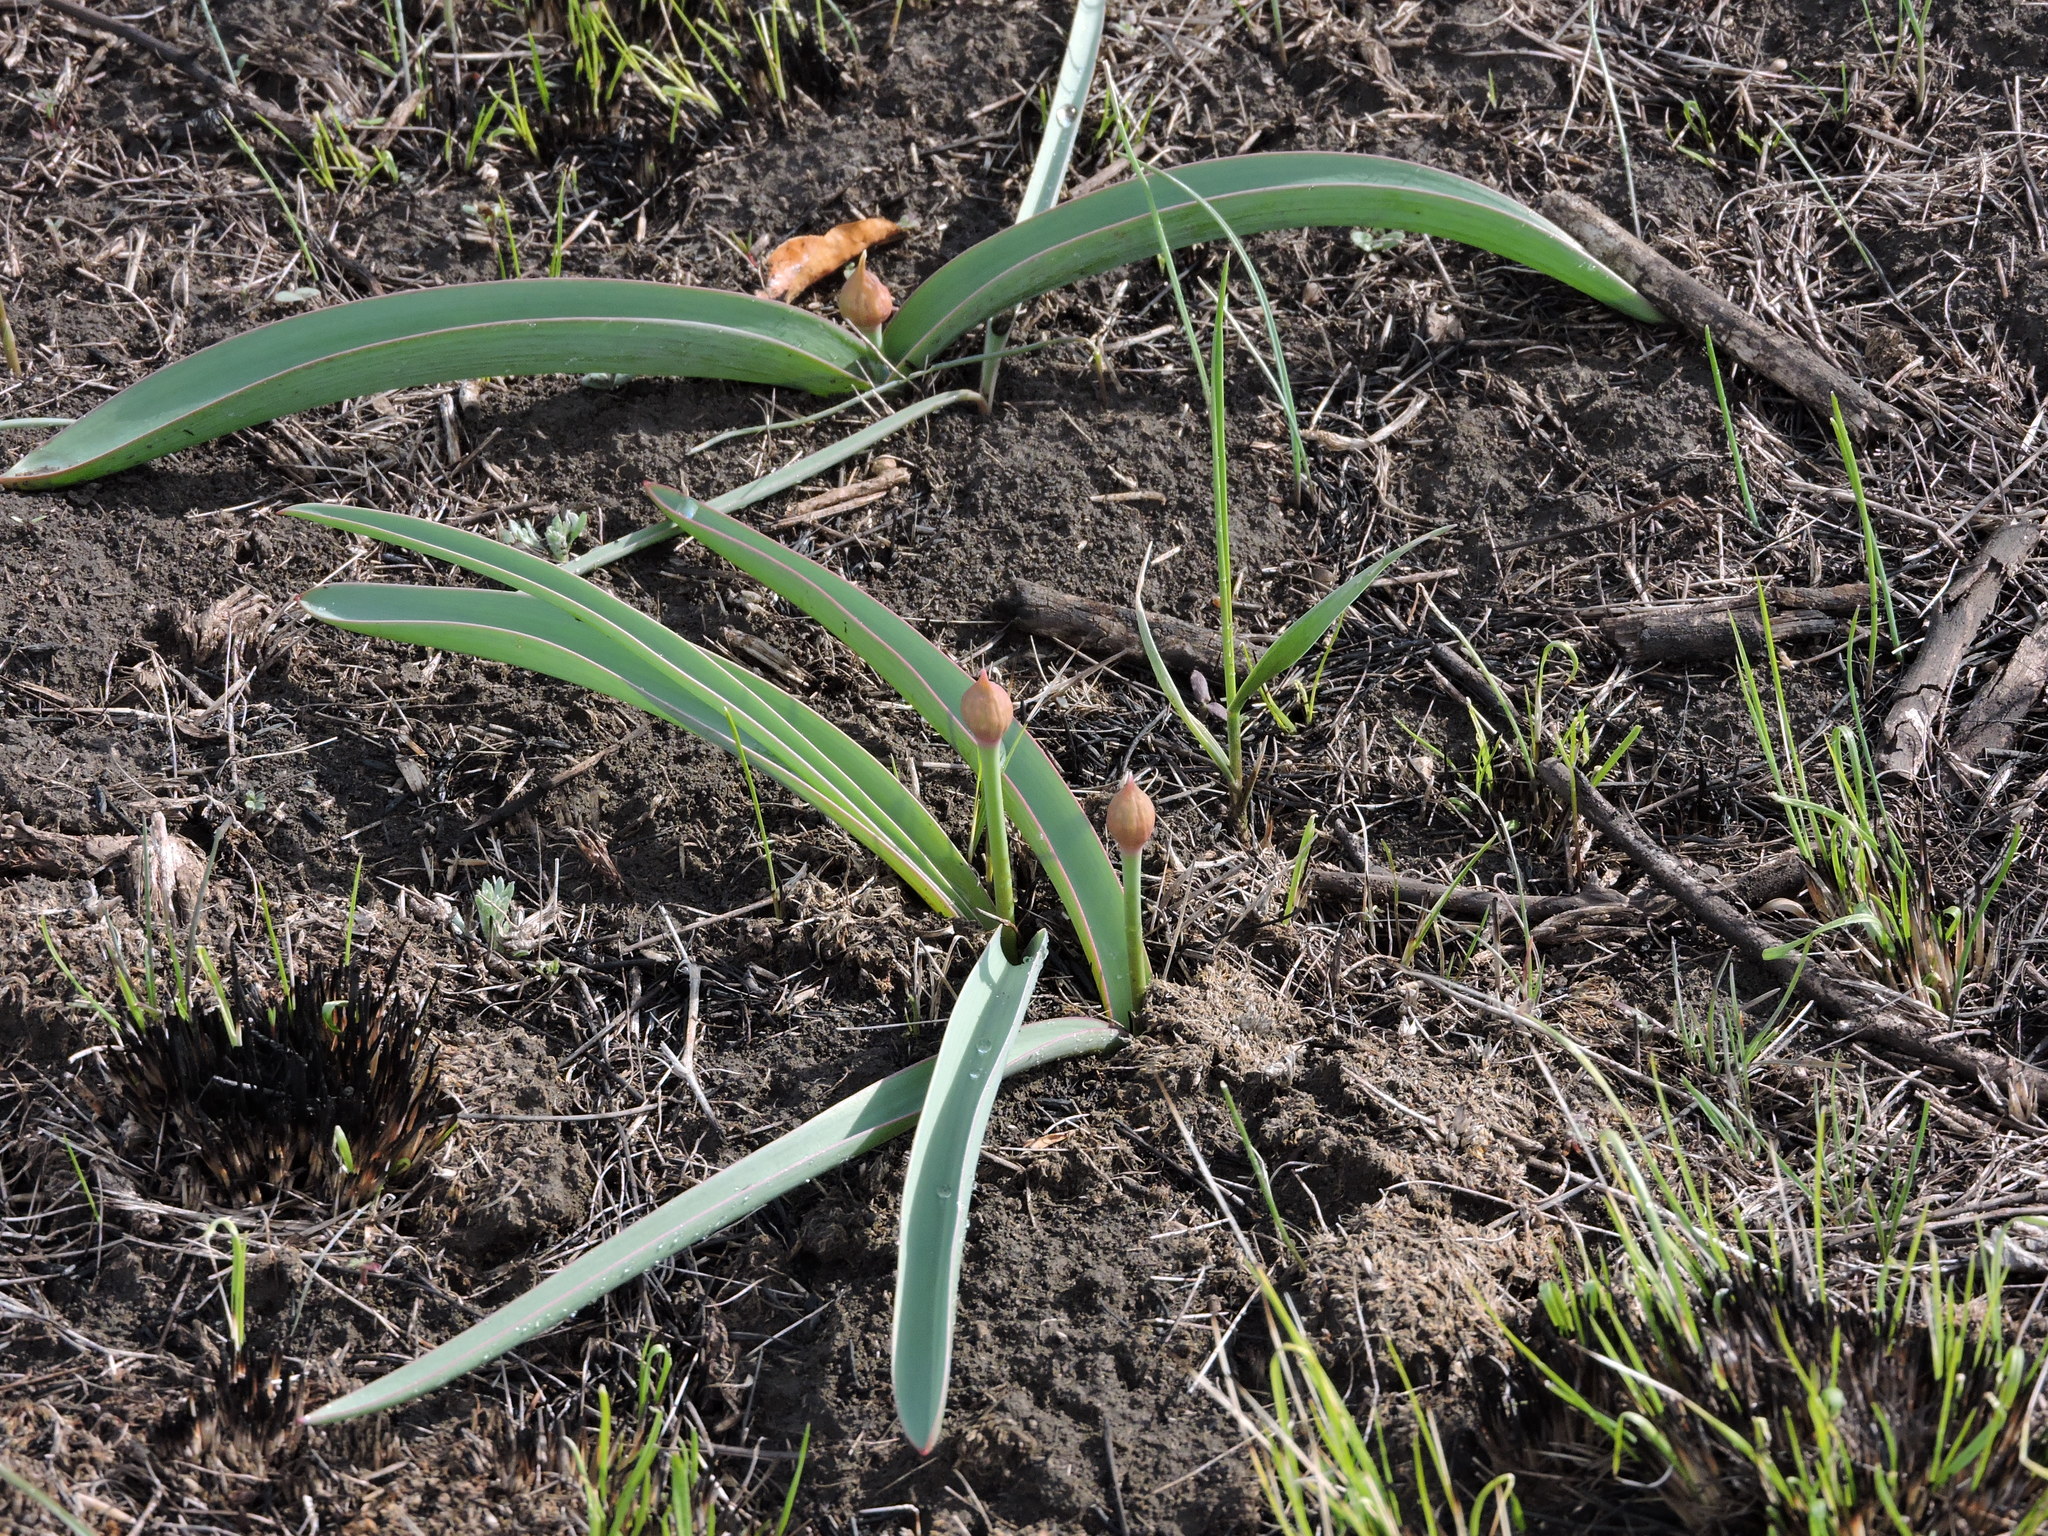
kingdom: Plantae
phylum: Tracheophyta
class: Liliopsida
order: Asparagales
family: Amaryllidaceae
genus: Allium
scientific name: Allium tulipifolium
